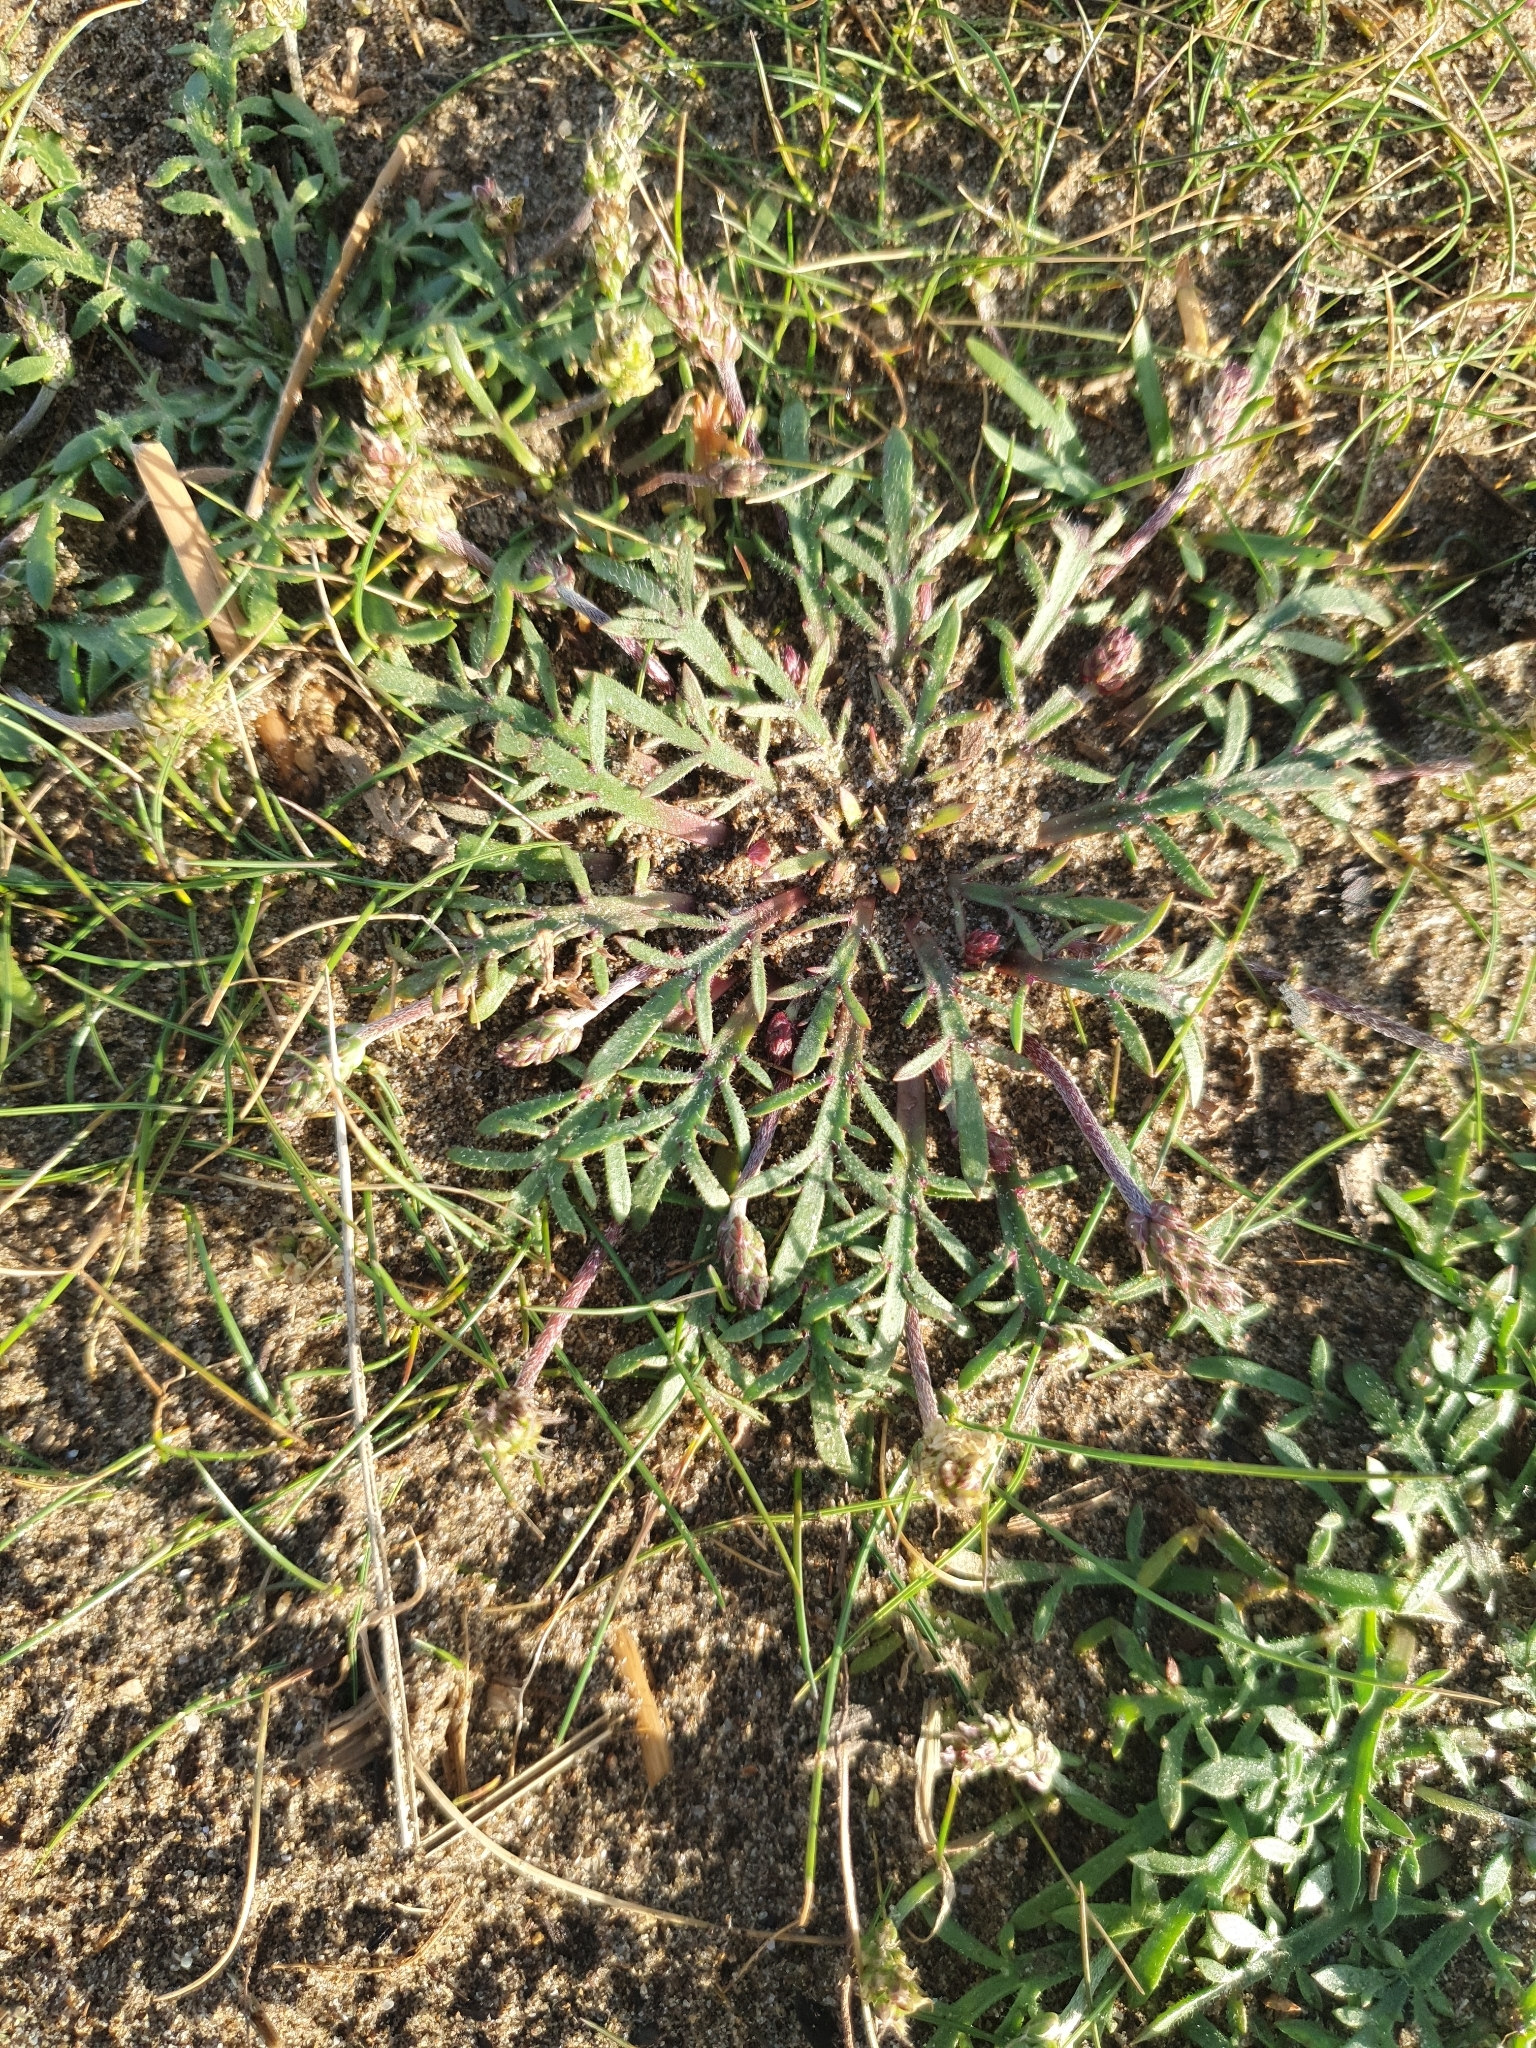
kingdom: Plantae
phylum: Tracheophyta
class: Magnoliopsida
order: Lamiales
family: Plantaginaceae
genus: Plantago
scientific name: Plantago coronopus
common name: Buck's-horn plantain
